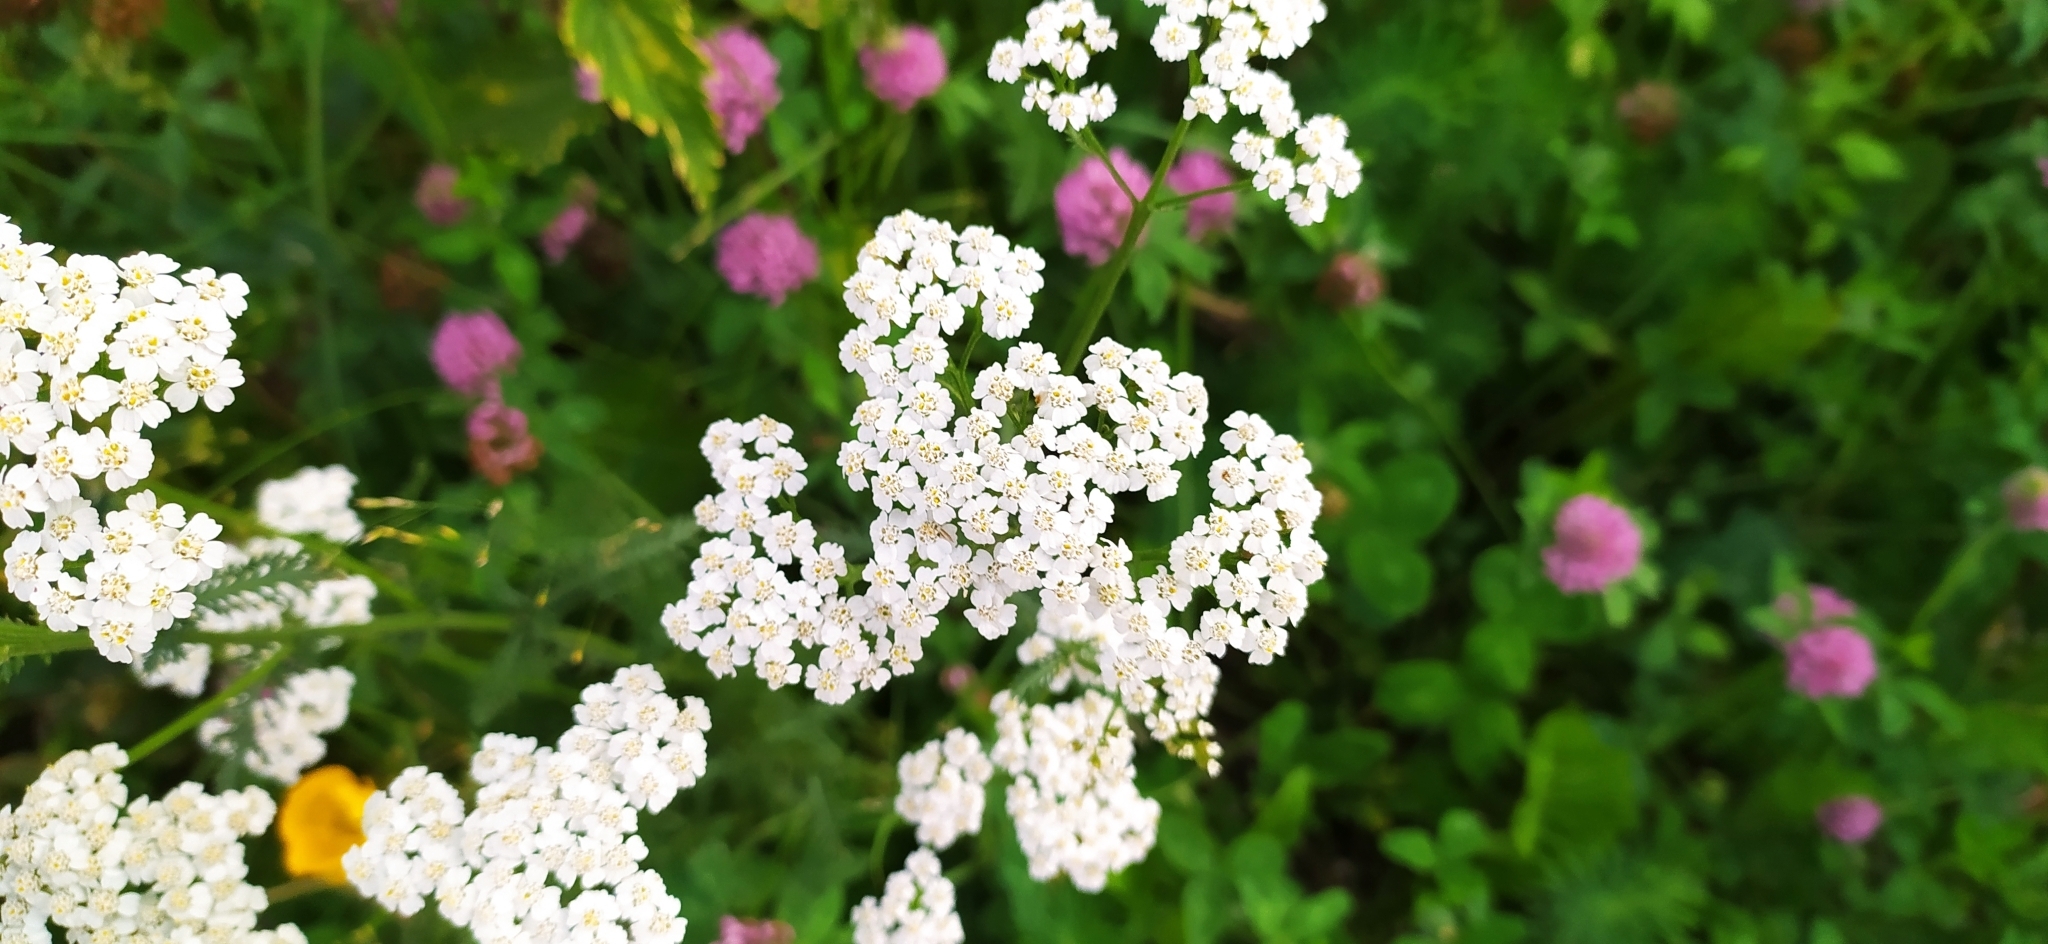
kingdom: Plantae
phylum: Tracheophyta
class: Magnoliopsida
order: Asterales
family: Asteraceae
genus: Achillea
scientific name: Achillea millefolium
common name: Yarrow
